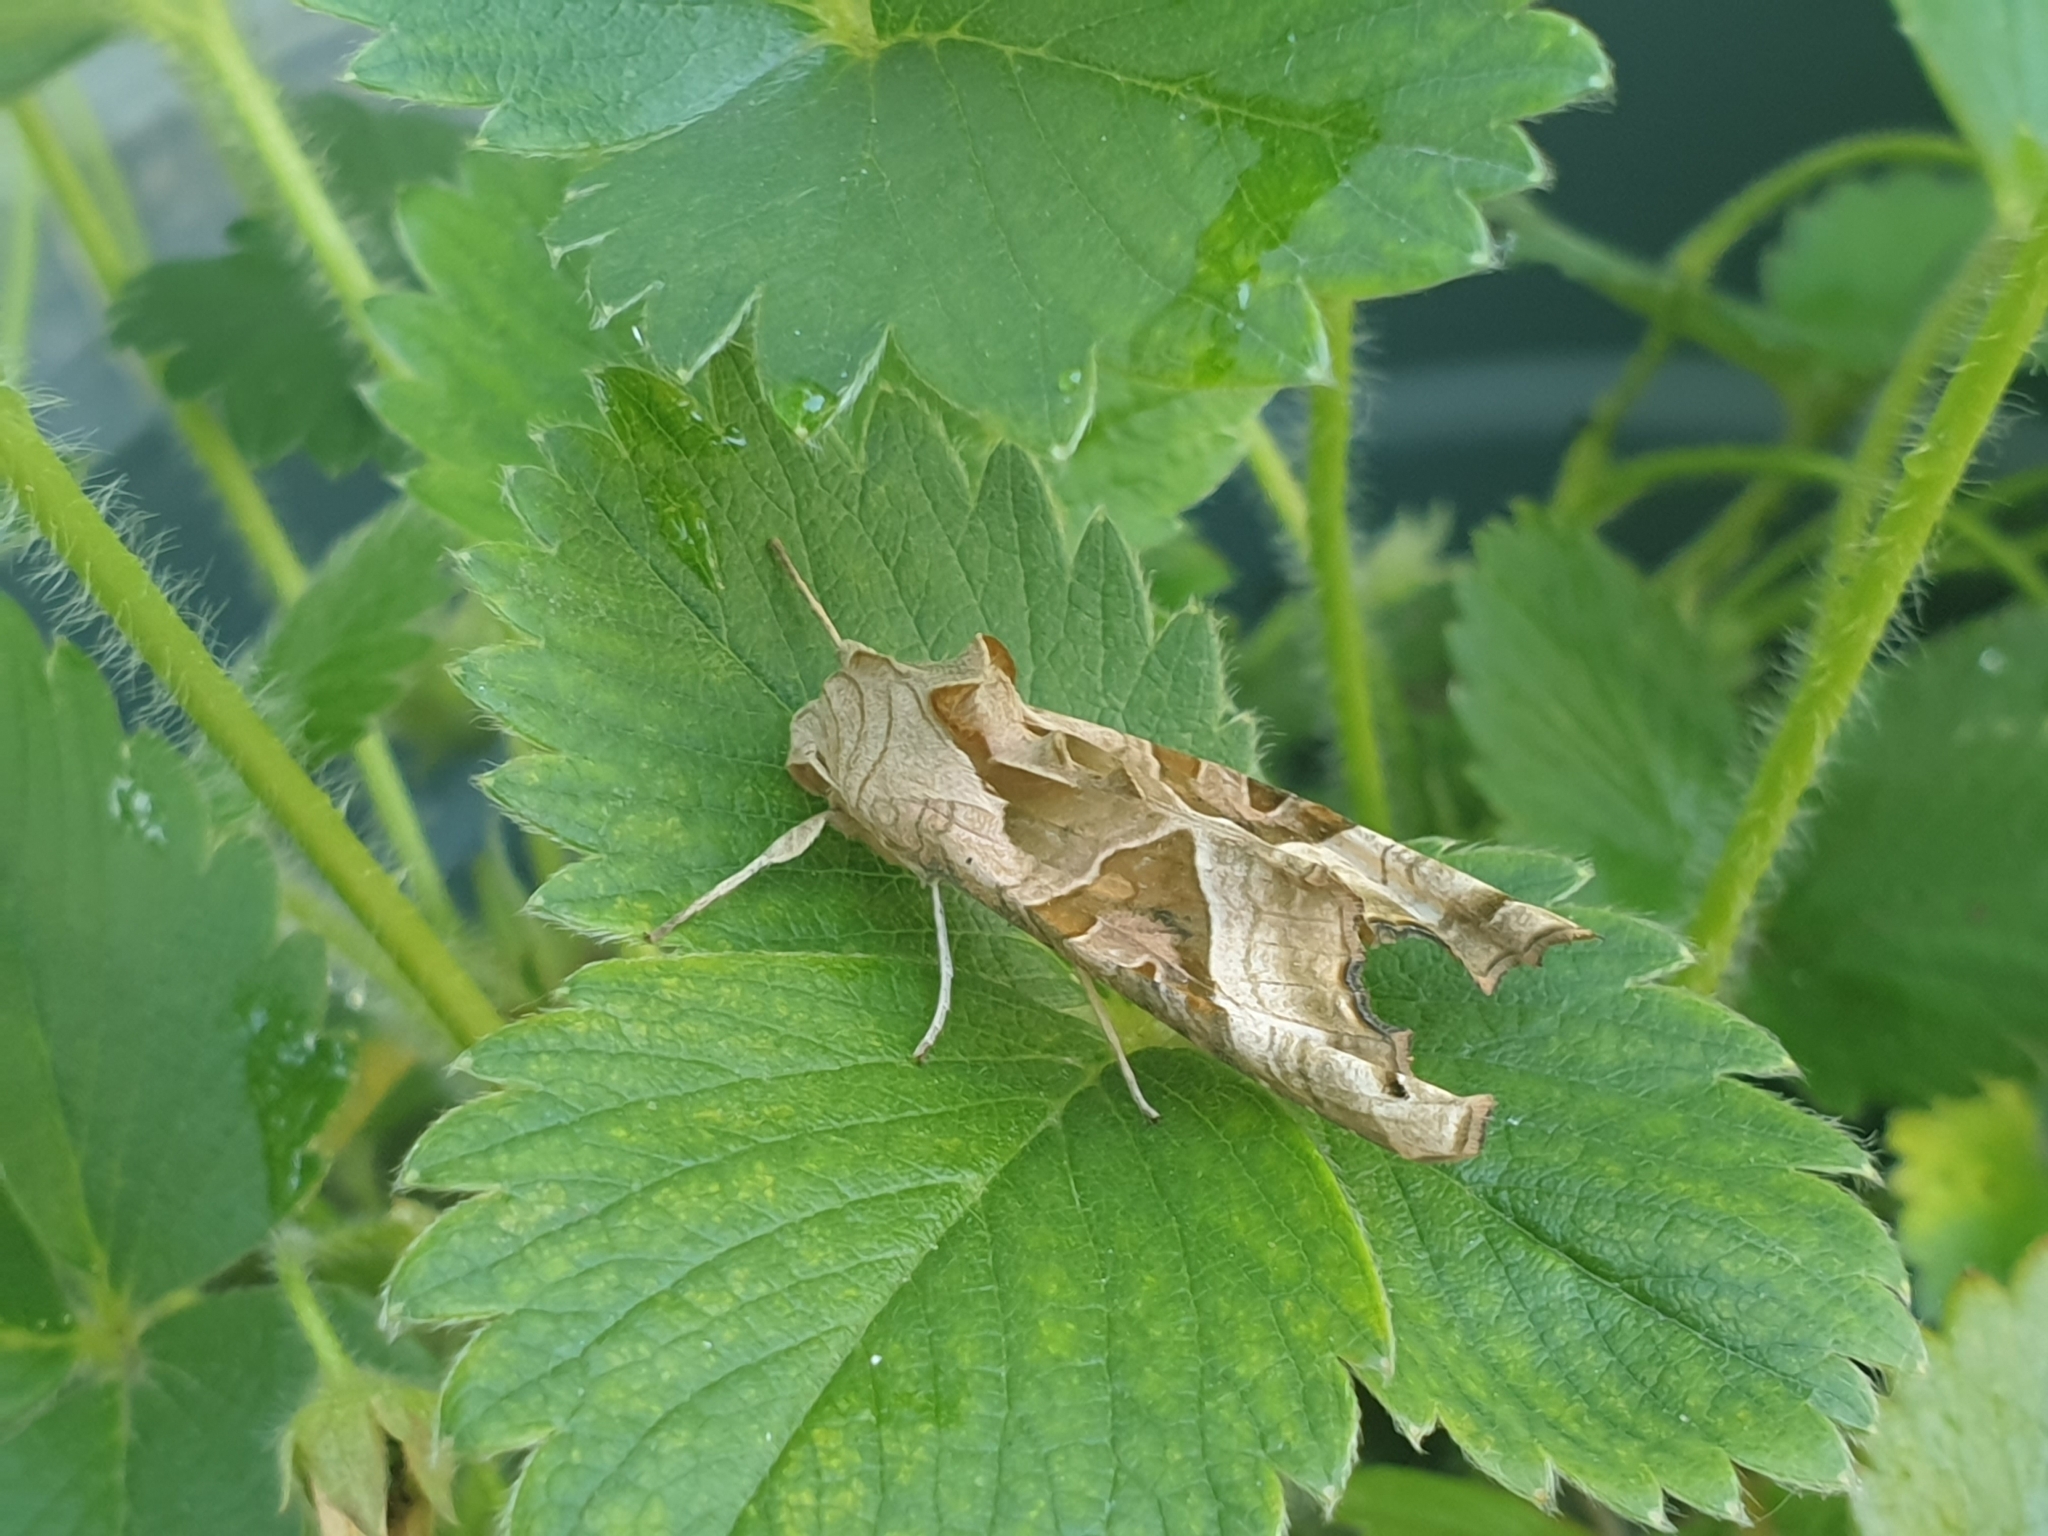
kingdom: Animalia
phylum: Arthropoda
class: Insecta
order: Lepidoptera
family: Noctuidae
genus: Phlogophora
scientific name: Phlogophora meticulosa
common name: Angle shades
